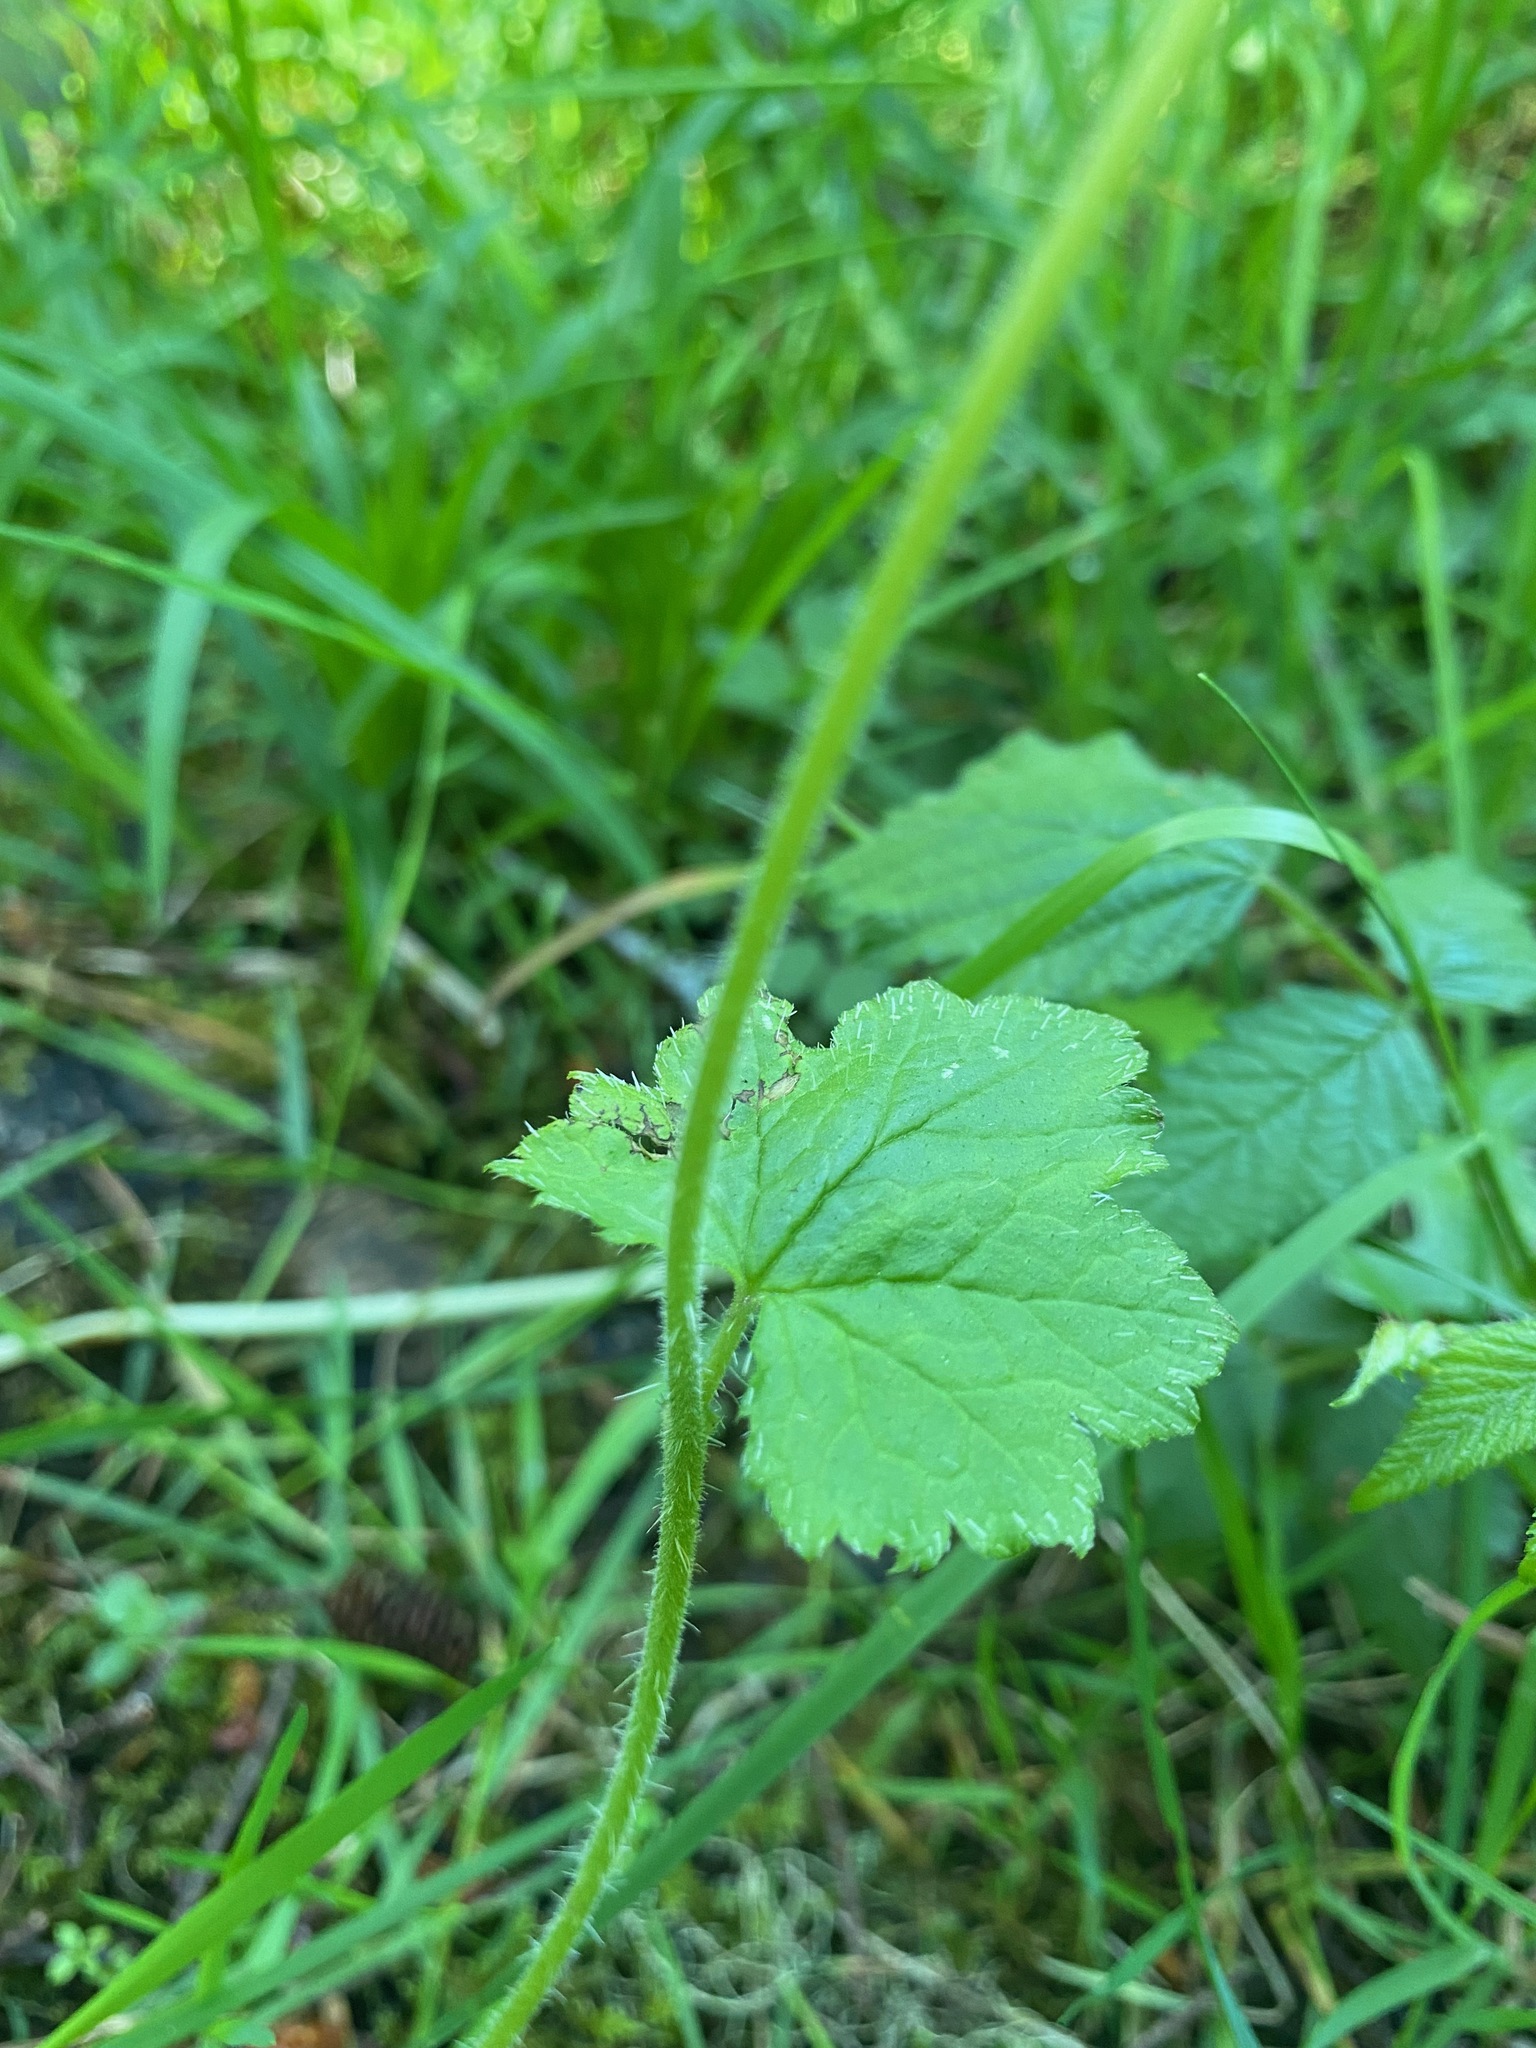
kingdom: Plantae
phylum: Tracheophyta
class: Magnoliopsida
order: Saxifragales
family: Saxifragaceae
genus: Tellima
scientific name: Tellima grandiflora
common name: Fringecups
